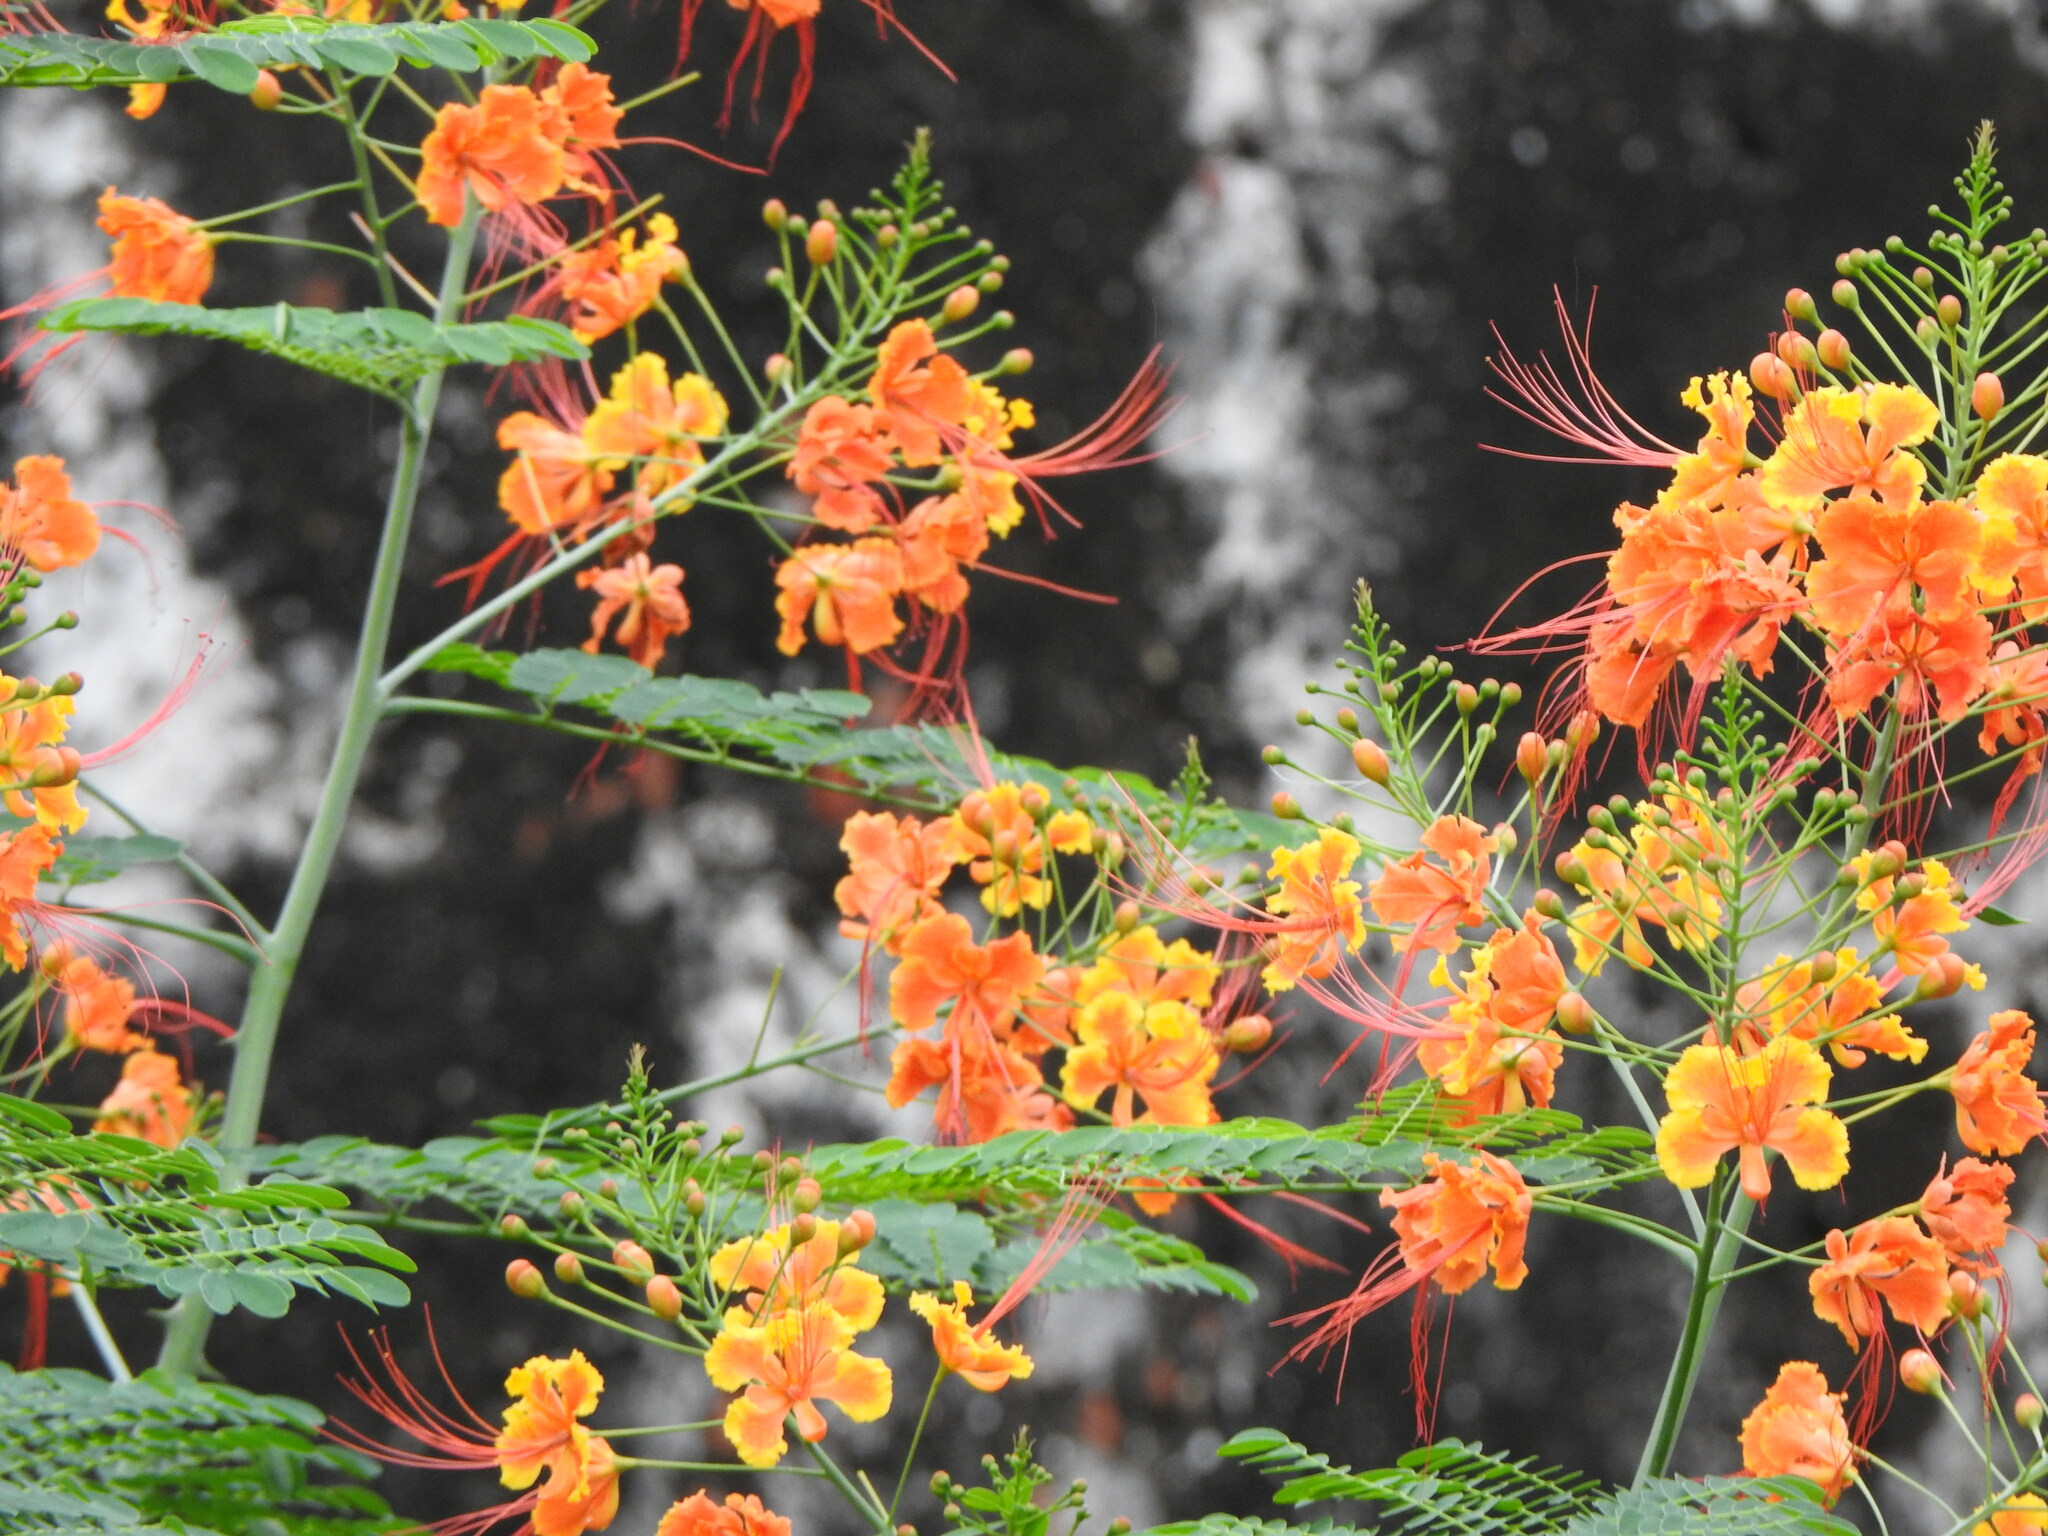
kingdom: Plantae
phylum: Tracheophyta
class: Magnoliopsida
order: Fabales
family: Fabaceae
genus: Caesalpinia
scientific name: Caesalpinia pulcherrima
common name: Pride-of-barbados
